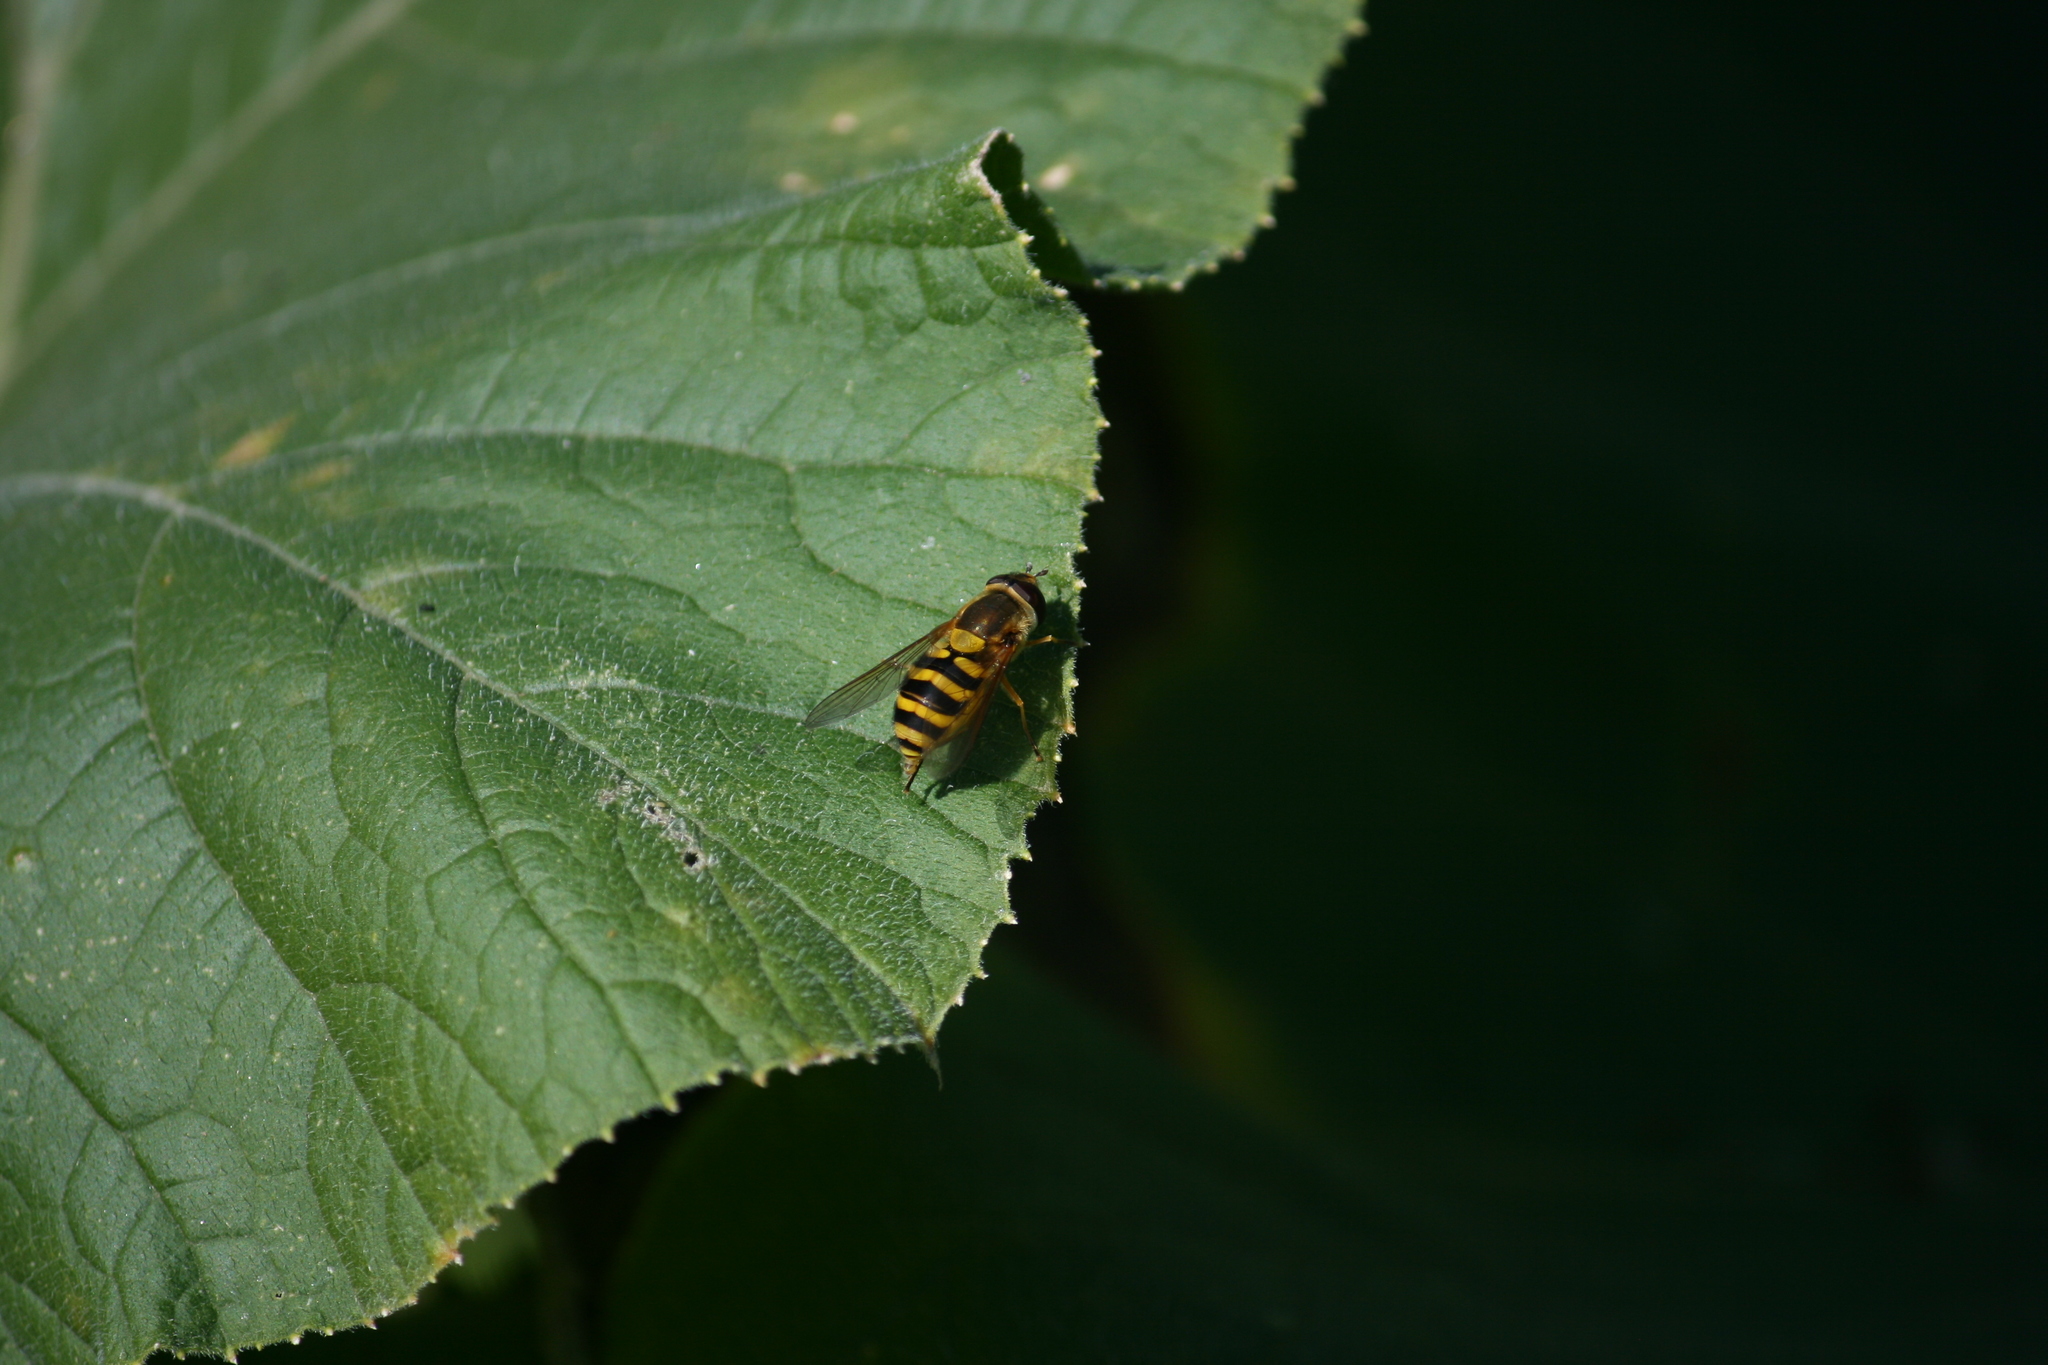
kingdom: Animalia
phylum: Arthropoda
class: Insecta
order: Diptera
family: Syrphidae
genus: Syrphus
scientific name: Syrphus
